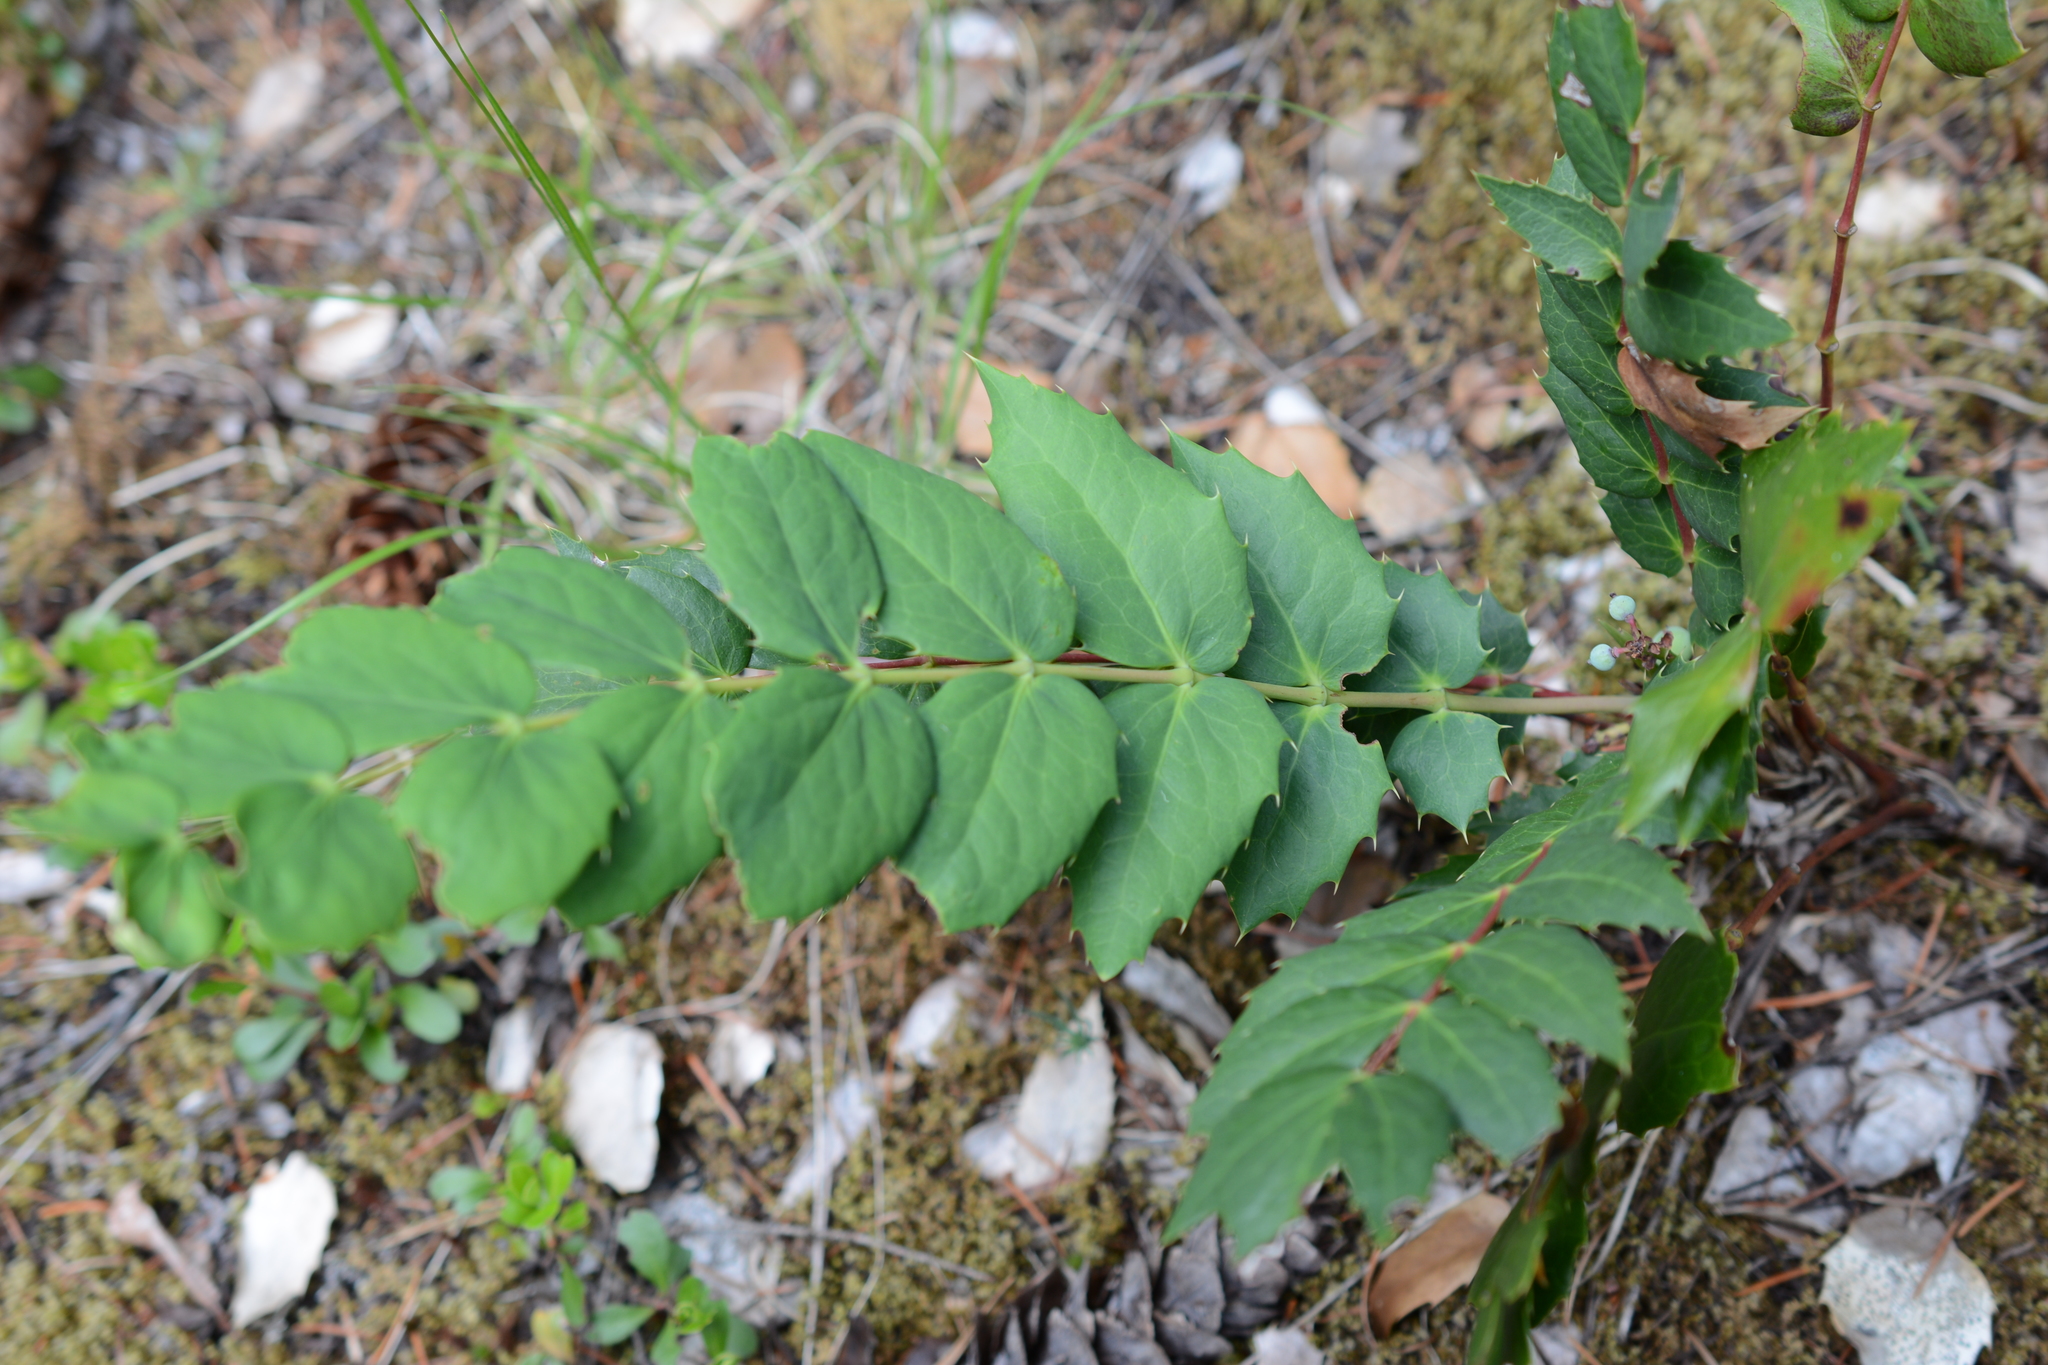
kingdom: Plantae
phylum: Tracheophyta
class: Magnoliopsida
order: Ranunculales
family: Berberidaceae
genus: Mahonia
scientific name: Mahonia nervosa
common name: Cascade oregon-grape
